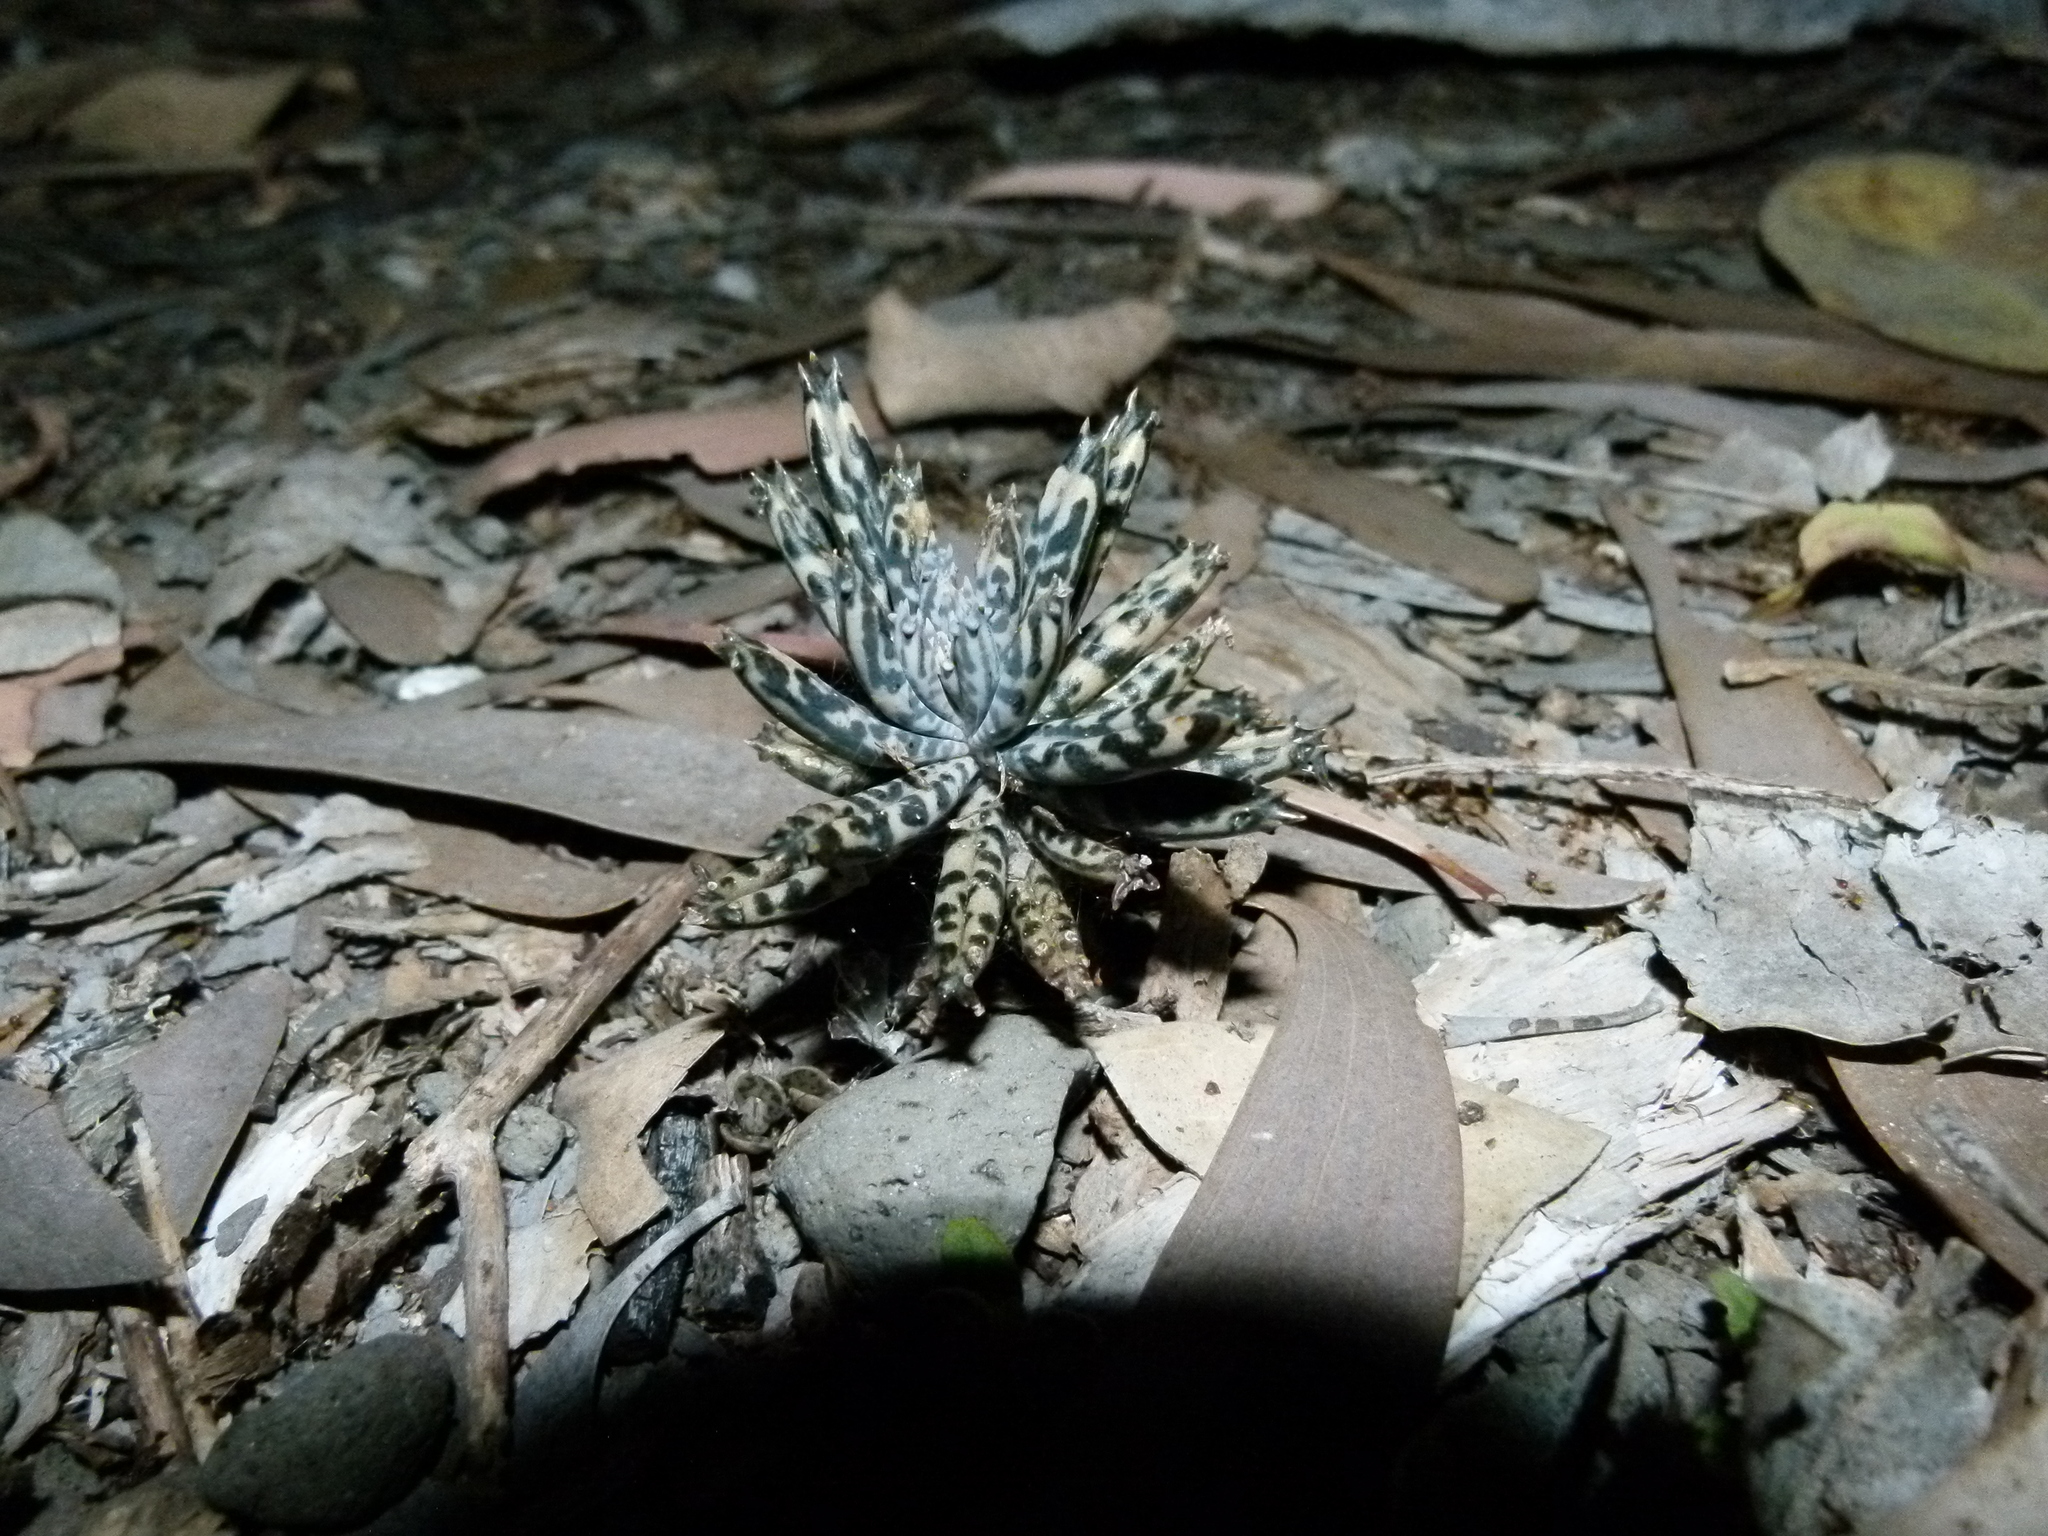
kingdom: Plantae
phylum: Tracheophyta
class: Magnoliopsida
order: Saxifragales
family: Crassulaceae
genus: Kalanchoe
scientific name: Kalanchoe delagoensis
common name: Chandelier plant
